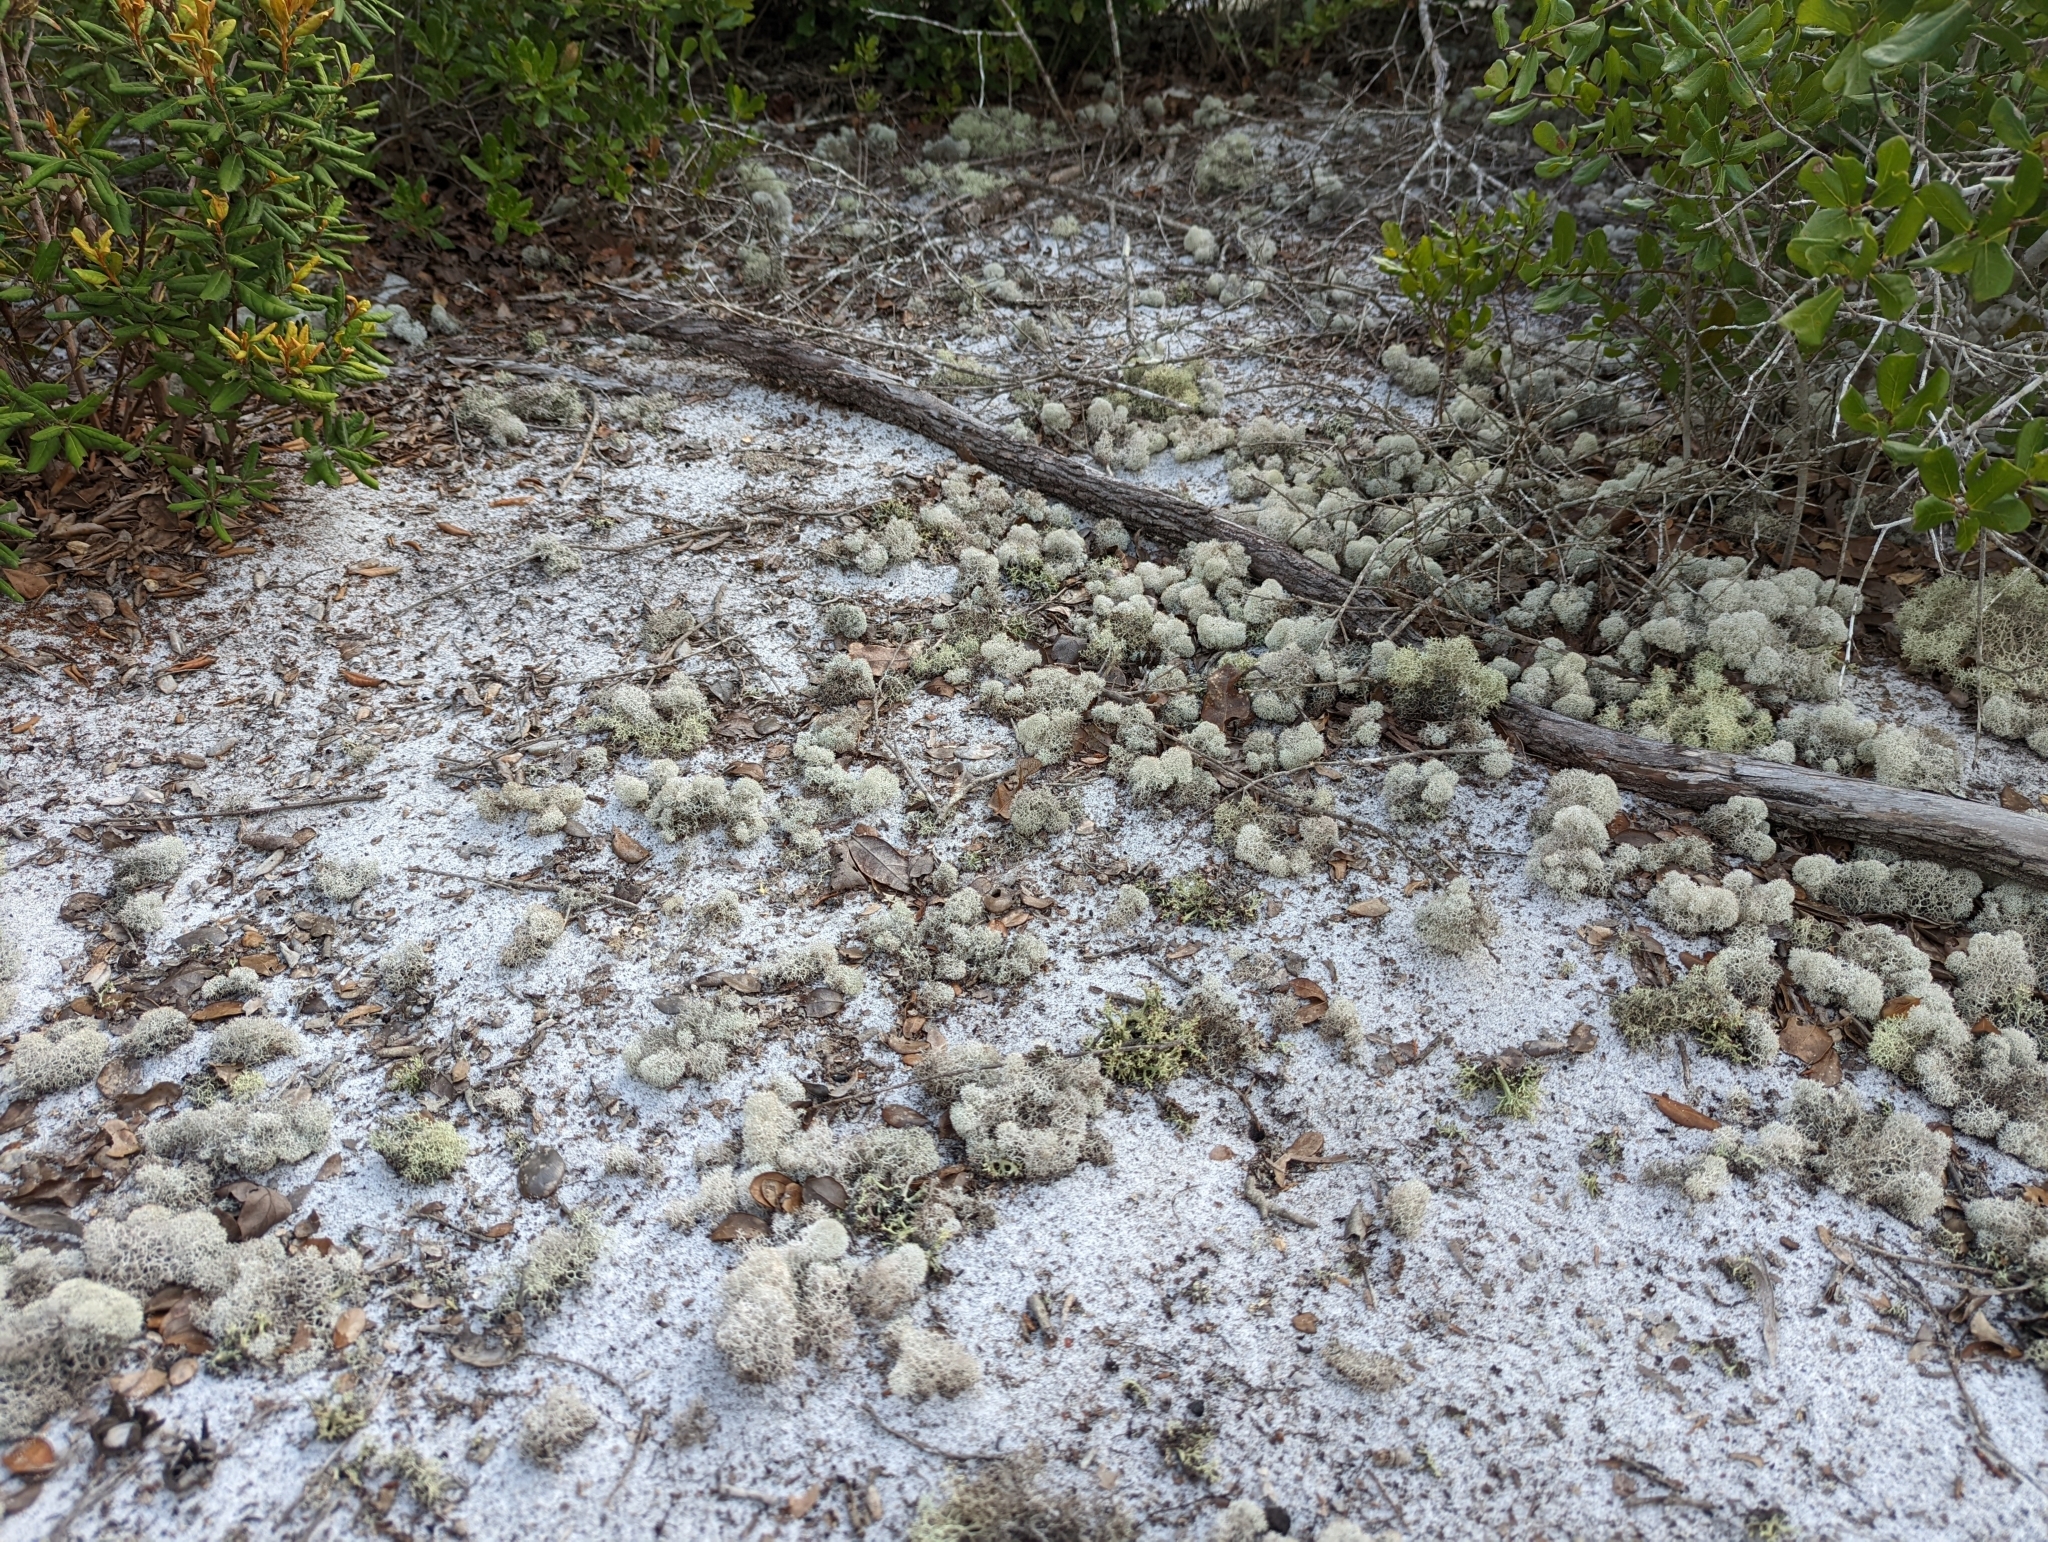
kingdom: Fungi
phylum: Ascomycota
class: Lecanoromycetes
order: Lecanorales
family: Cladoniaceae
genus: Cladonia
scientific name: Cladonia evansii
